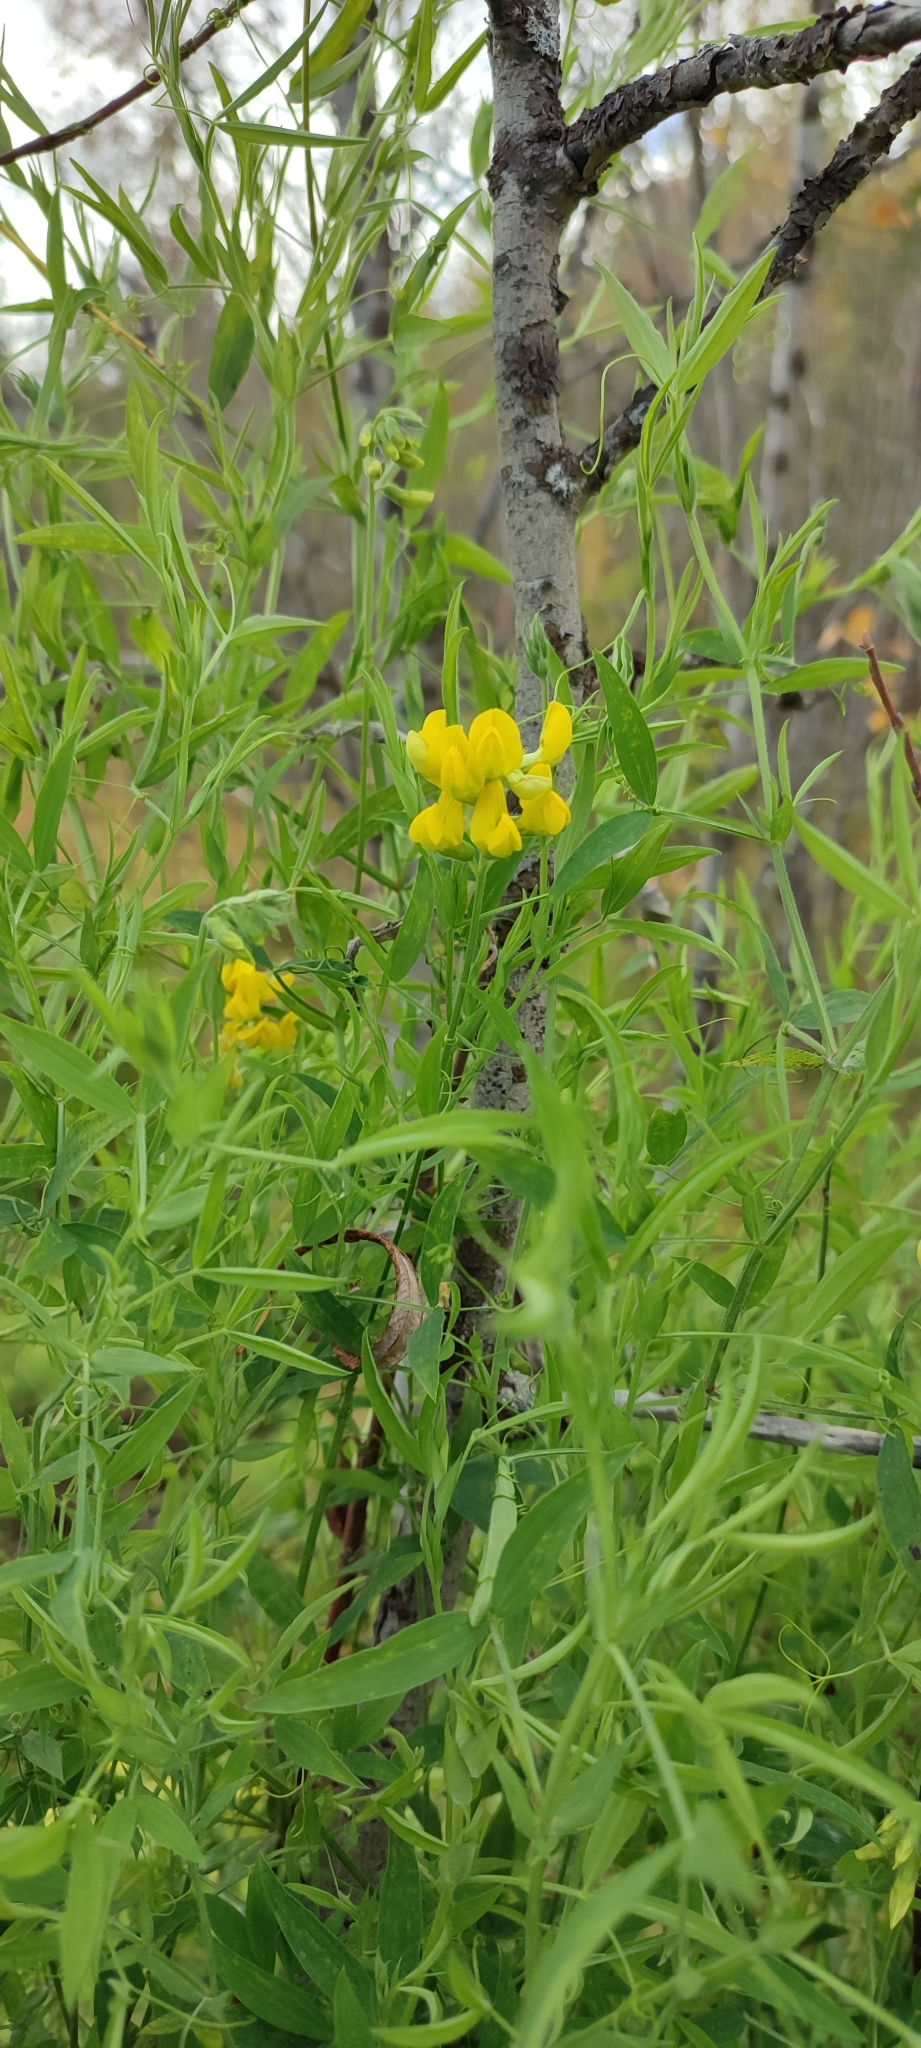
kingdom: Plantae
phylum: Tracheophyta
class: Magnoliopsida
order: Fabales
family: Fabaceae
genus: Lathyrus
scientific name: Lathyrus pratensis
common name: Meadow vetchling
